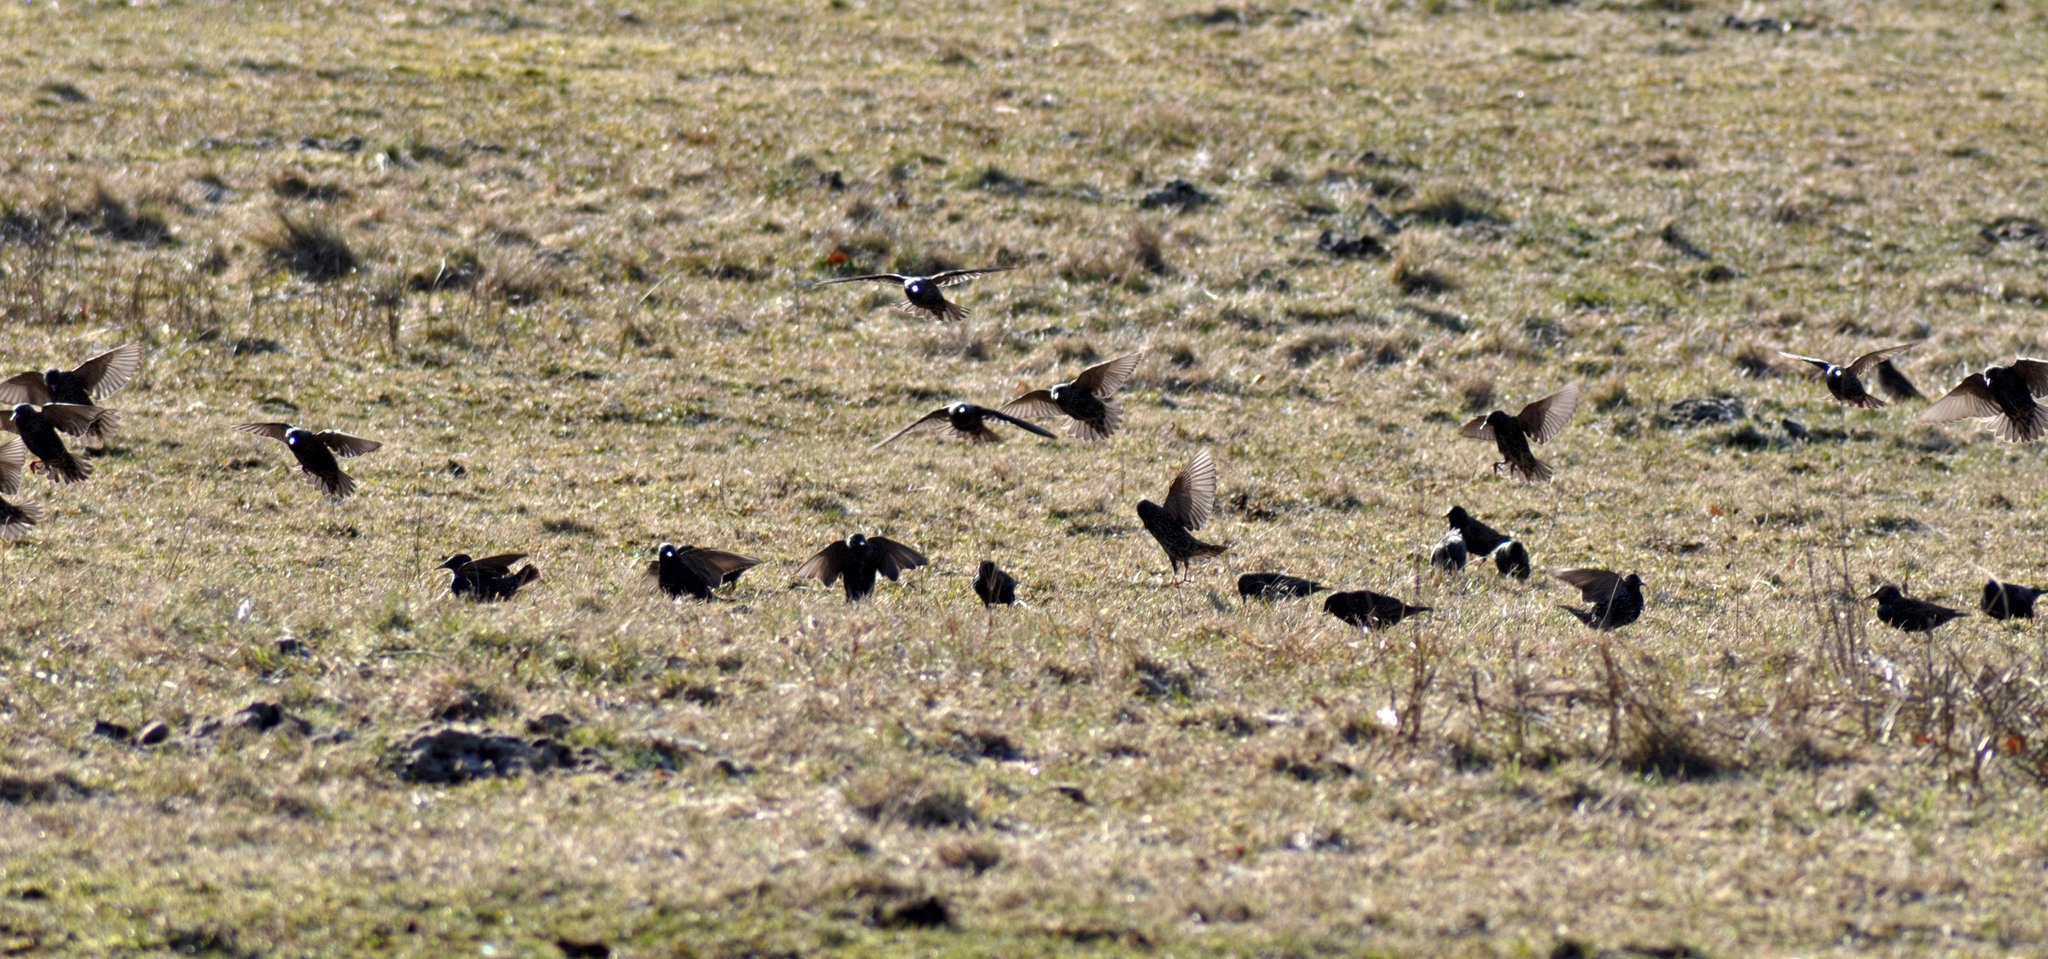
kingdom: Animalia
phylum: Chordata
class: Aves
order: Passeriformes
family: Sturnidae
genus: Sturnus
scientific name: Sturnus vulgaris
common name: Common starling
